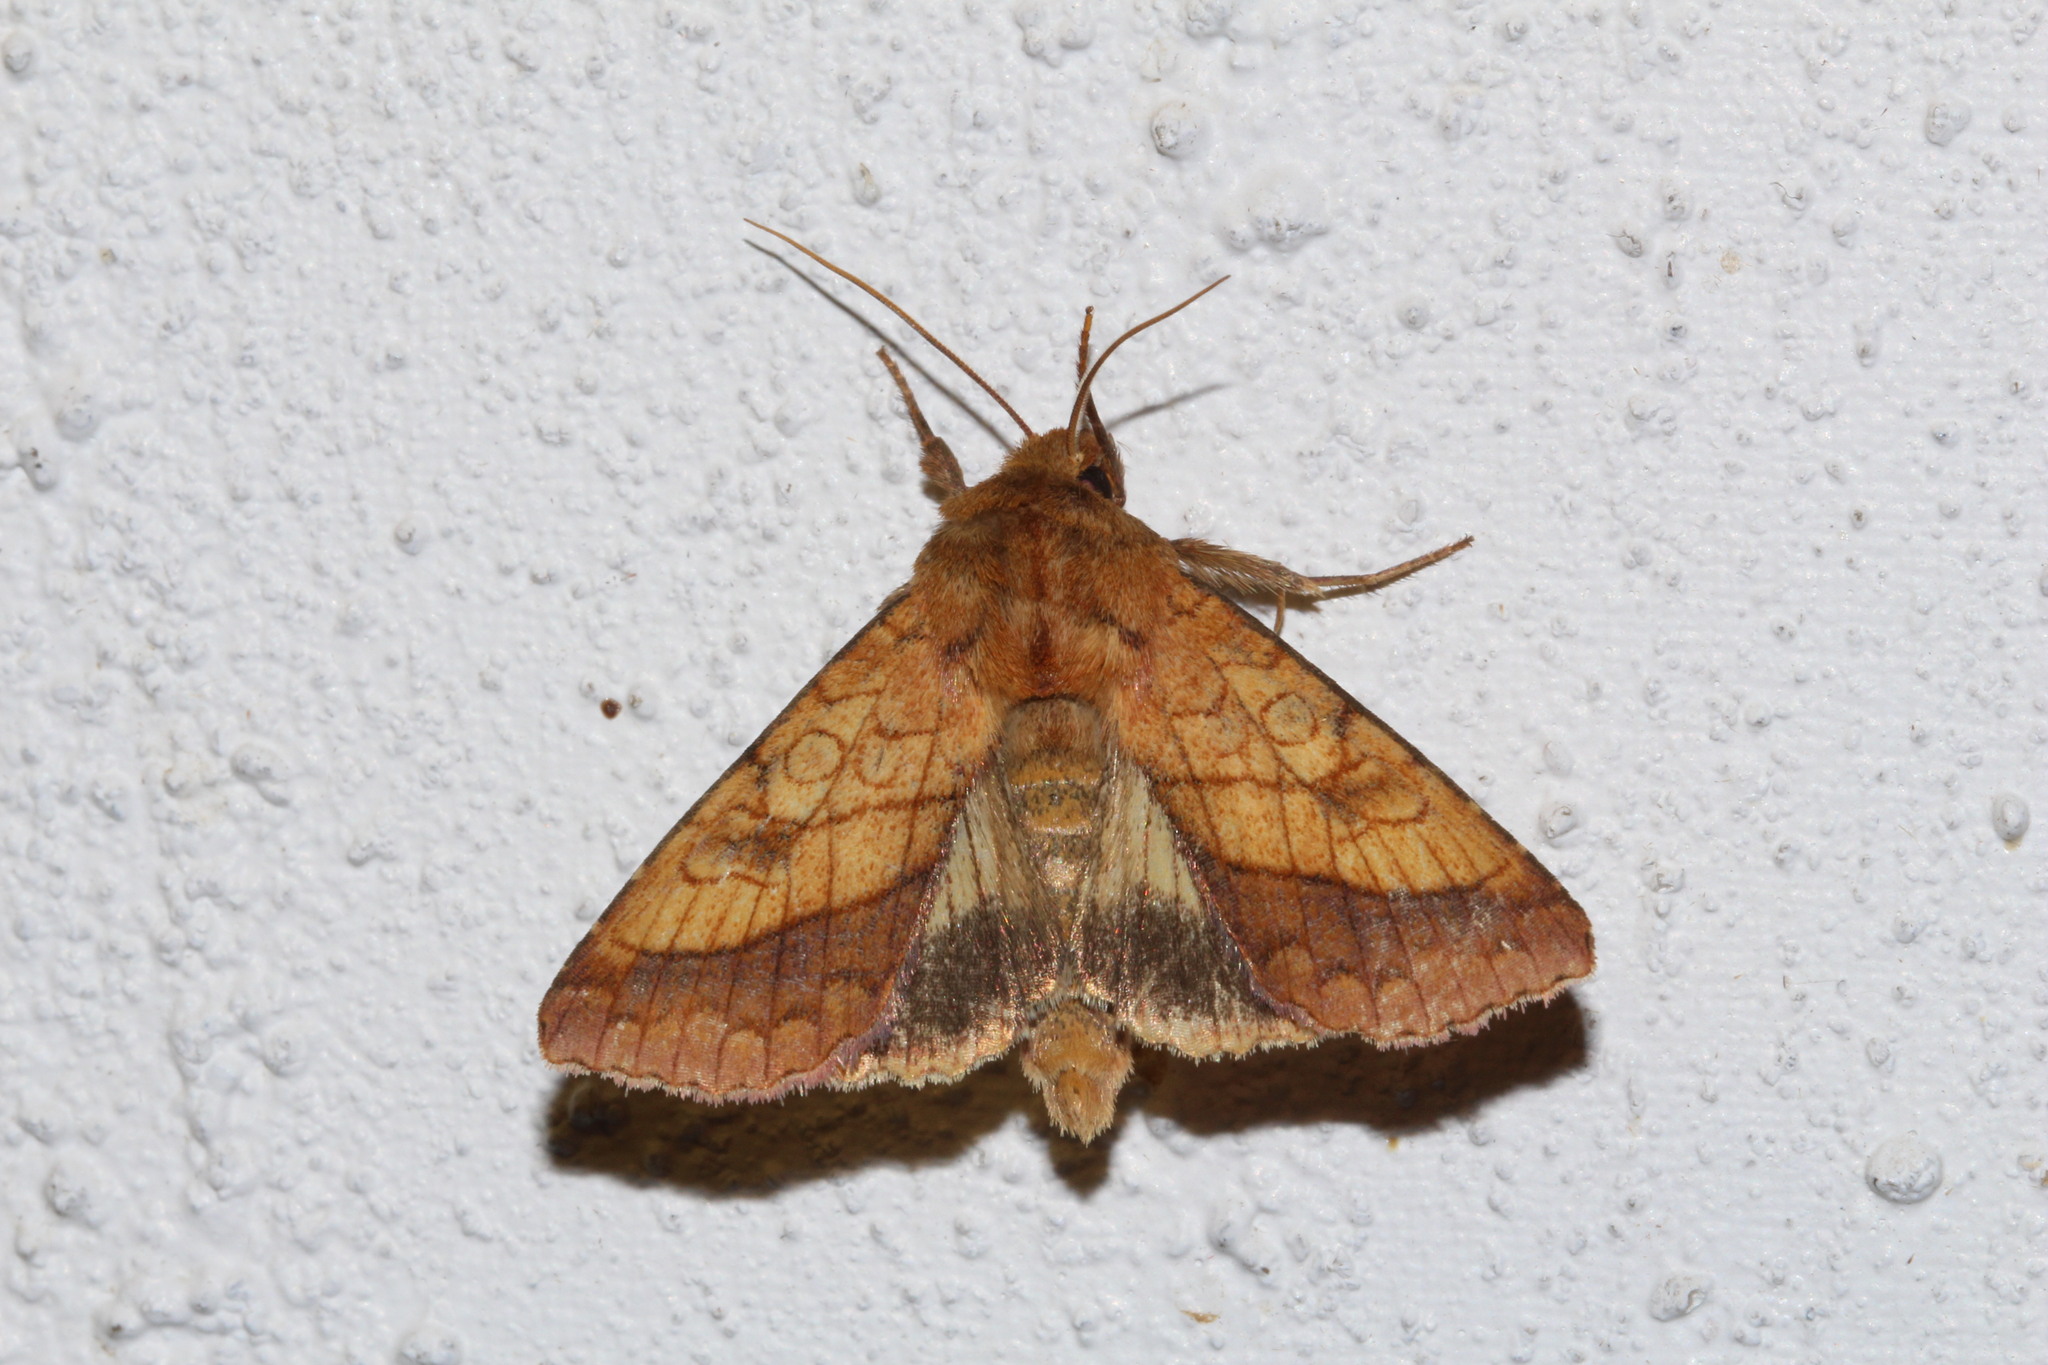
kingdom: Animalia
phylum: Arthropoda
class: Insecta
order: Lepidoptera
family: Noctuidae
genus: Pyrrhia
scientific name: Pyrrhia umbra
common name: Bordered sallow
